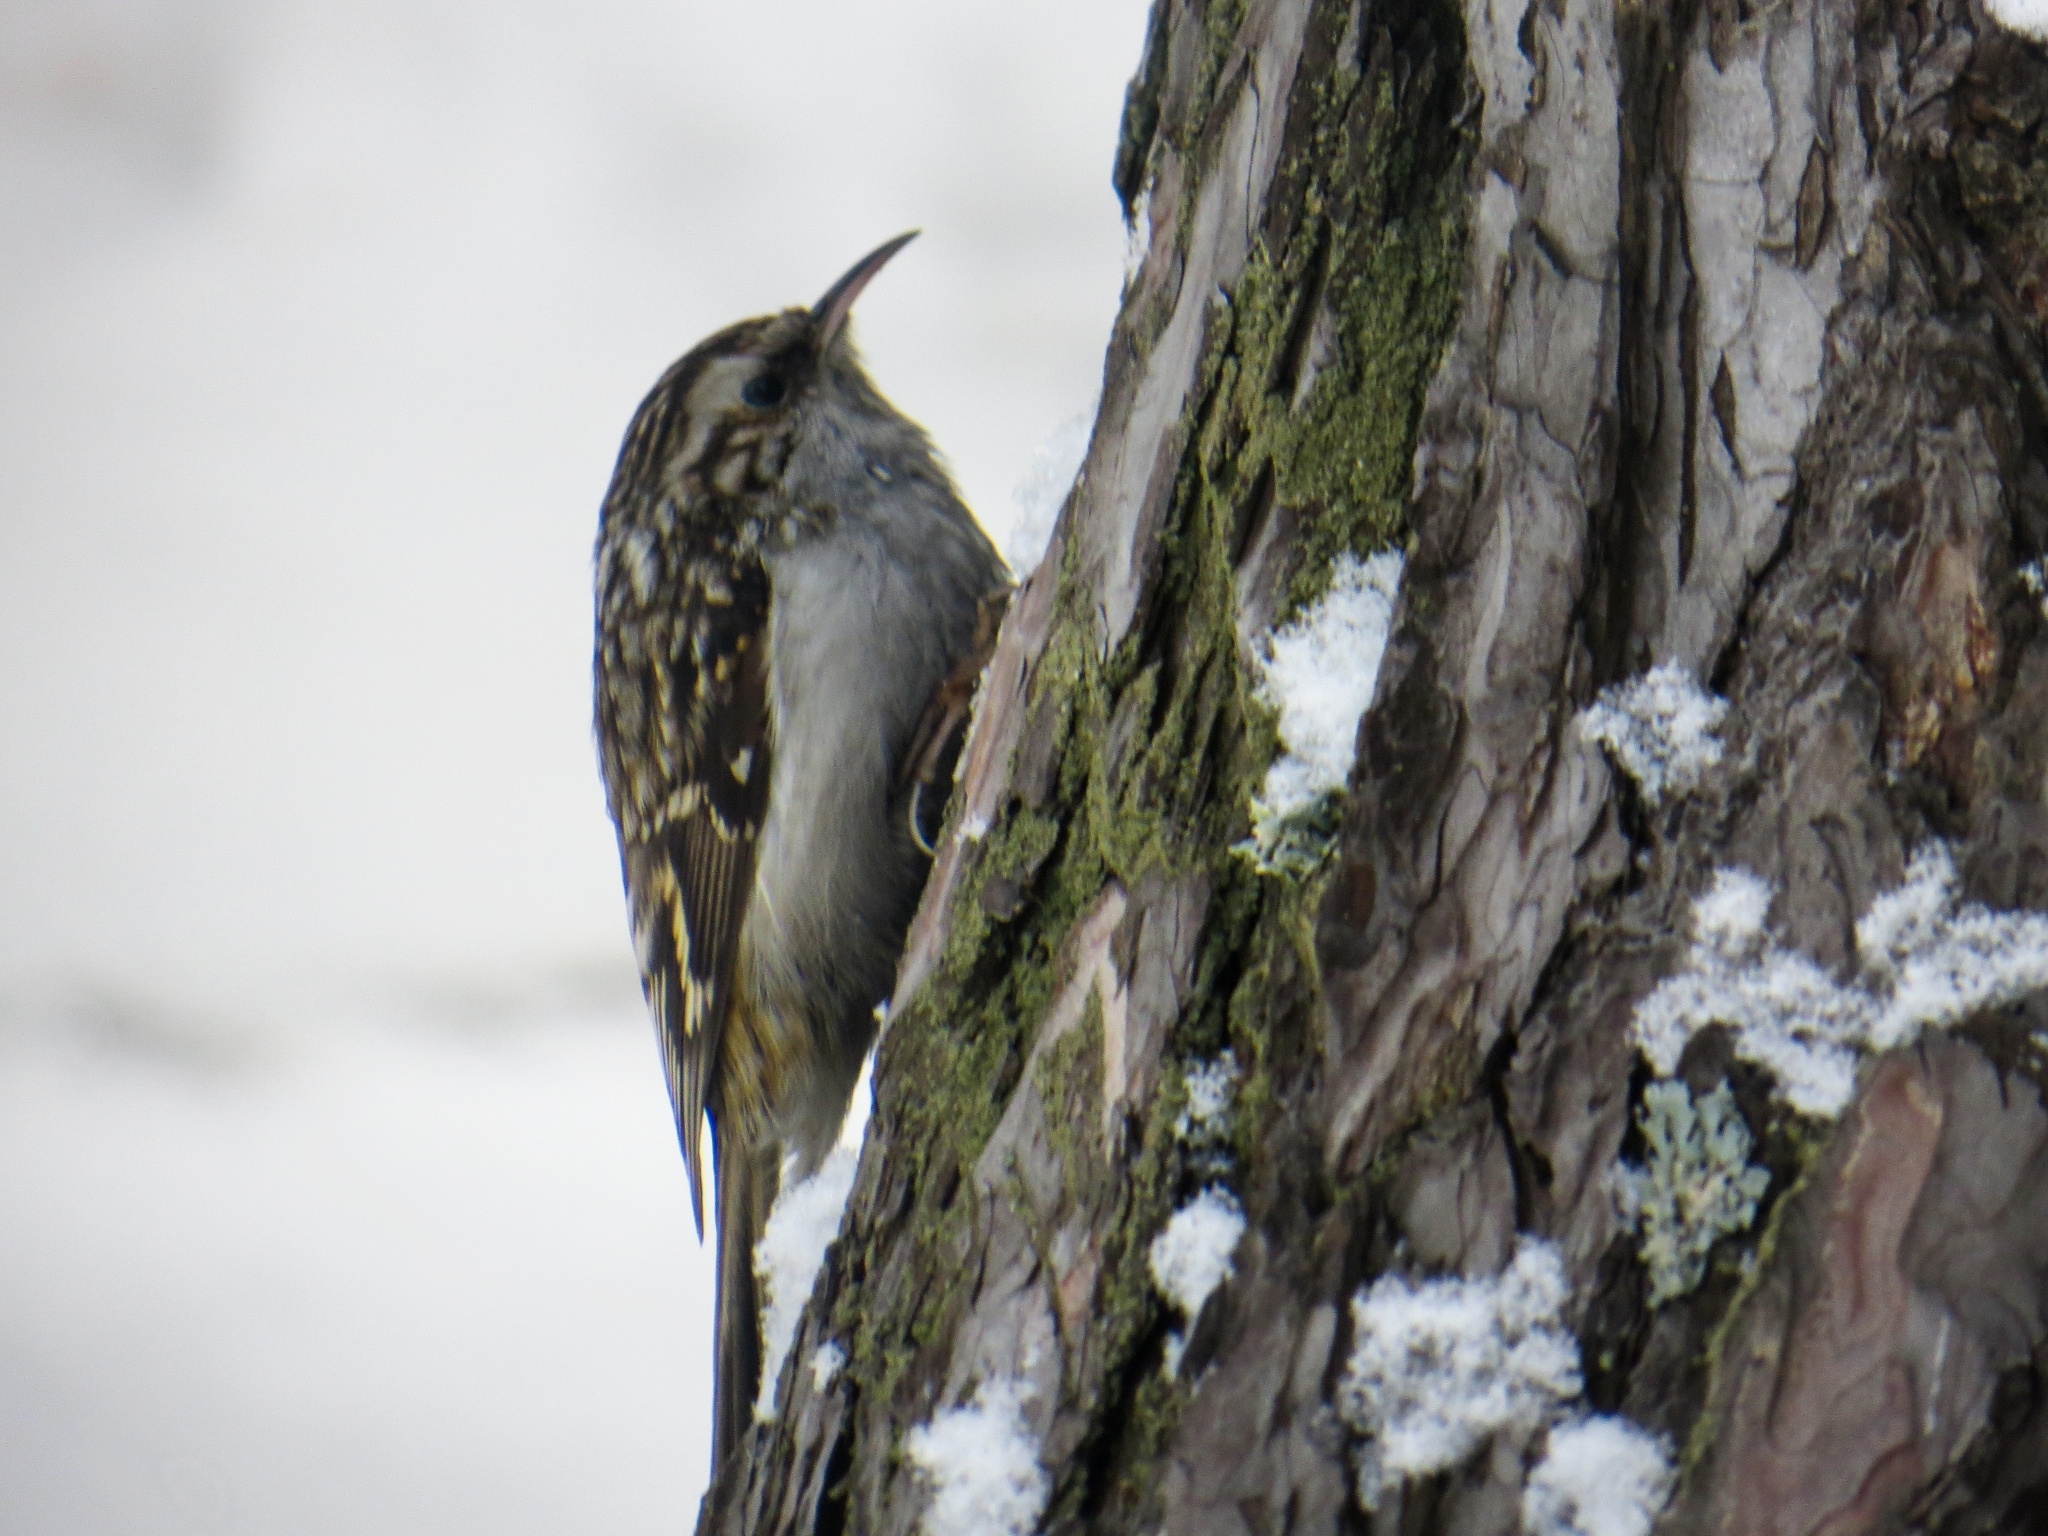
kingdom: Animalia
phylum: Chordata
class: Aves
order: Passeriformes
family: Certhiidae
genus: Certhia
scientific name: Certhia familiaris
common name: Eurasian treecreeper
